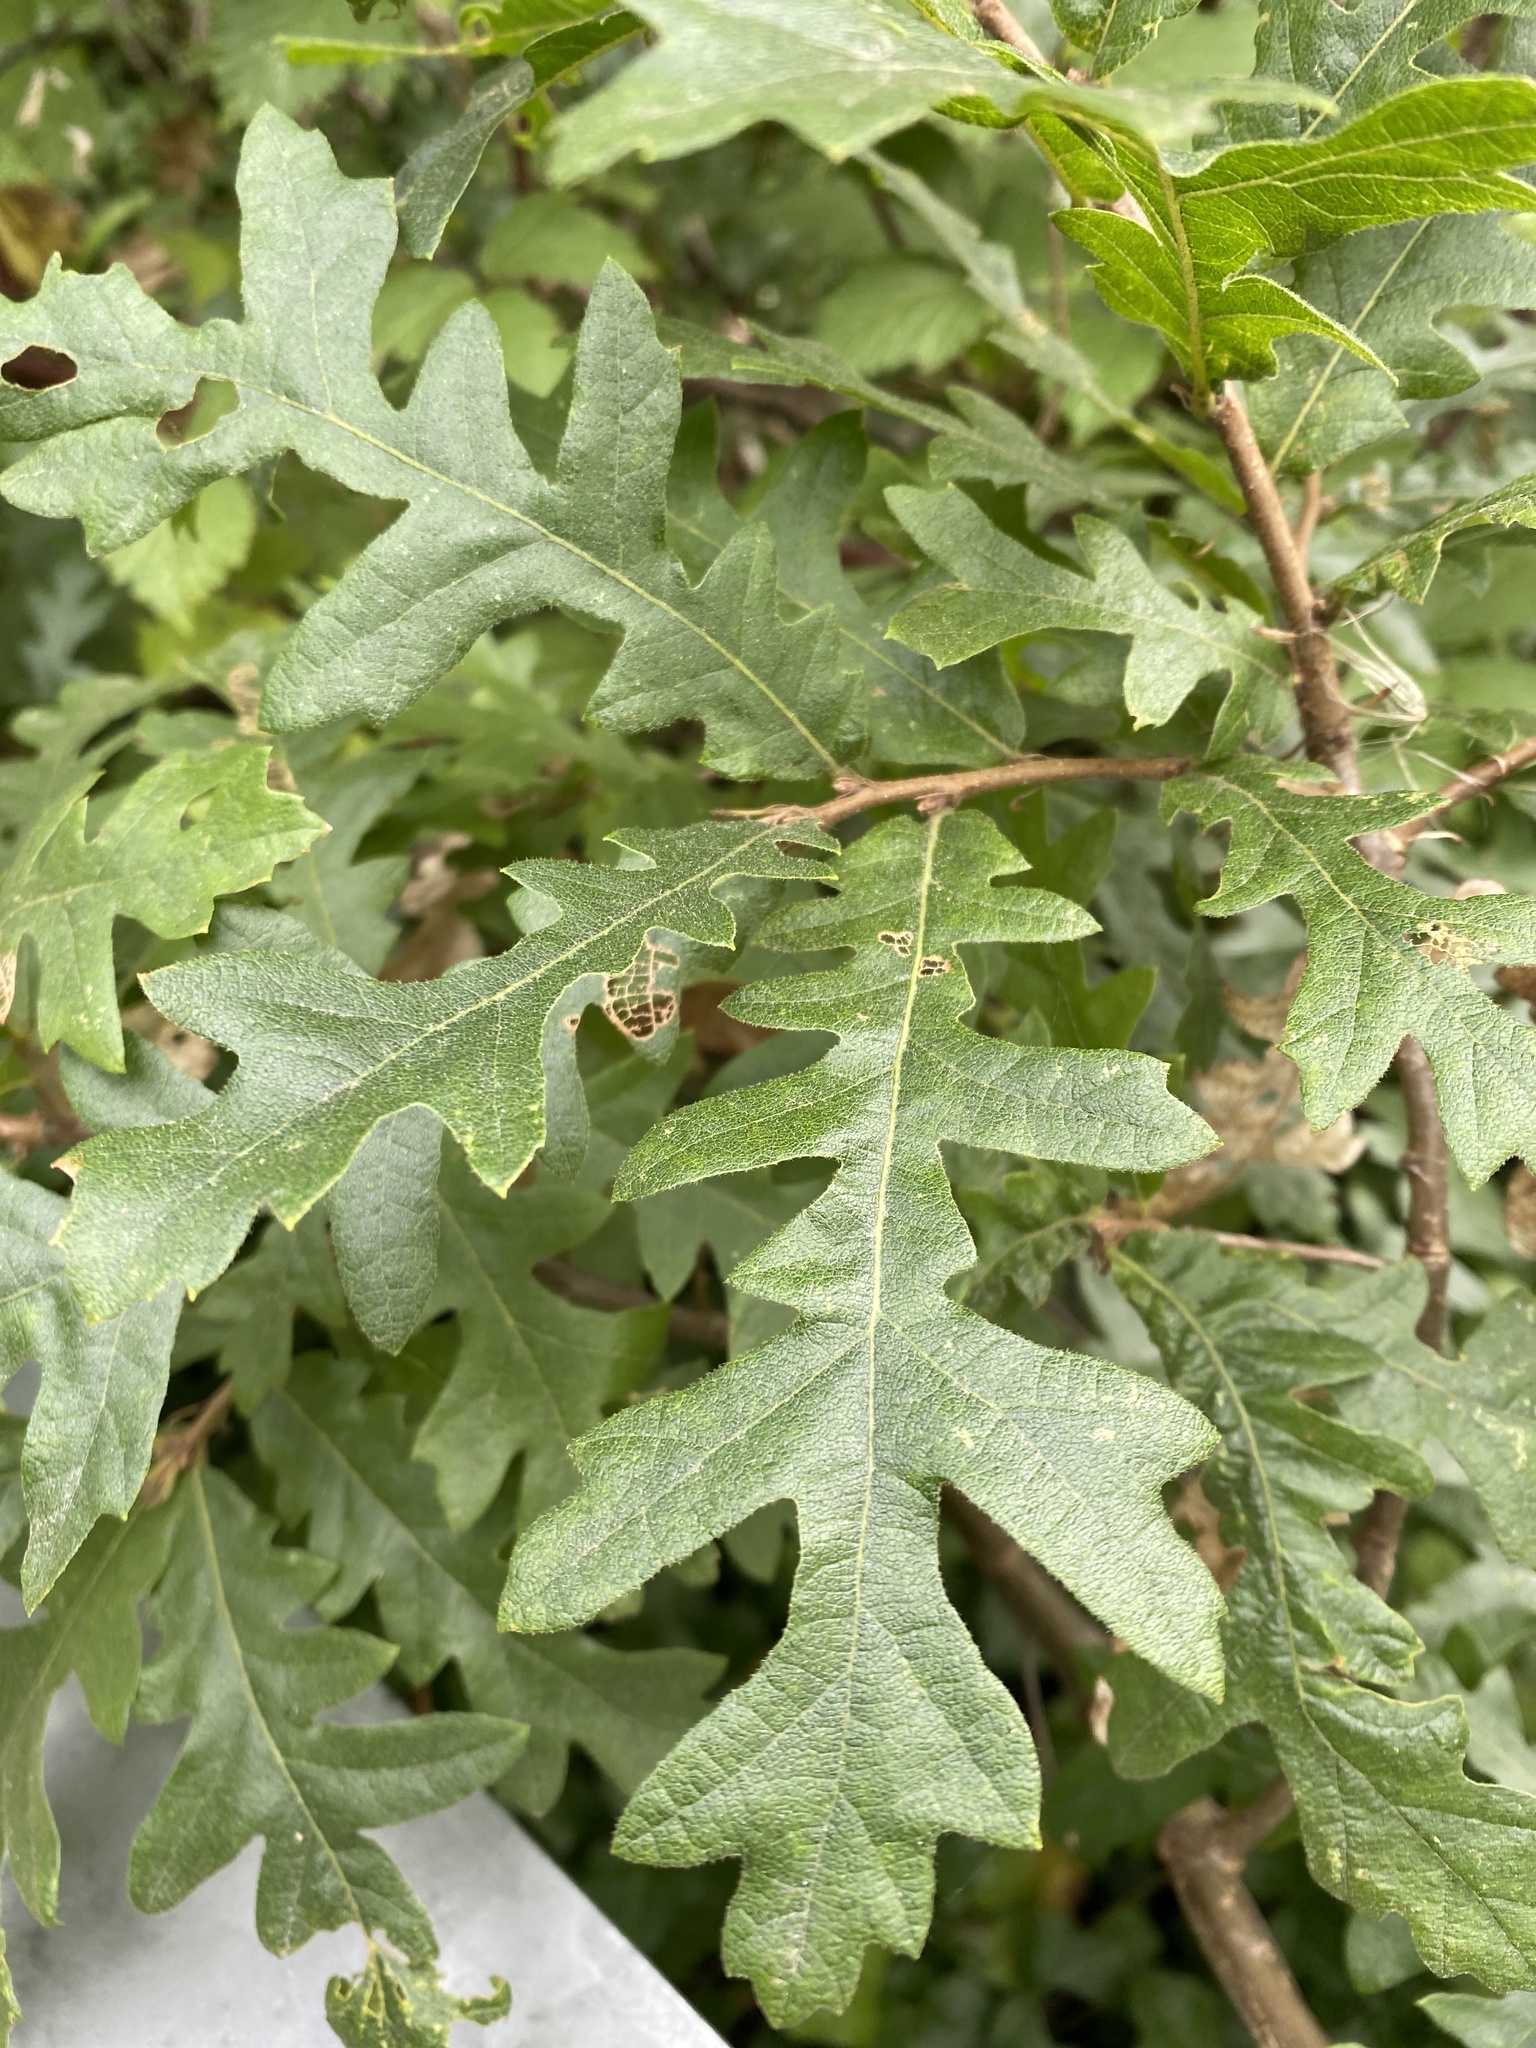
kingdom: Plantae
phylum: Tracheophyta
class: Magnoliopsida
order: Fagales
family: Fagaceae
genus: Quercus
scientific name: Quercus cerris
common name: Turkey oak
